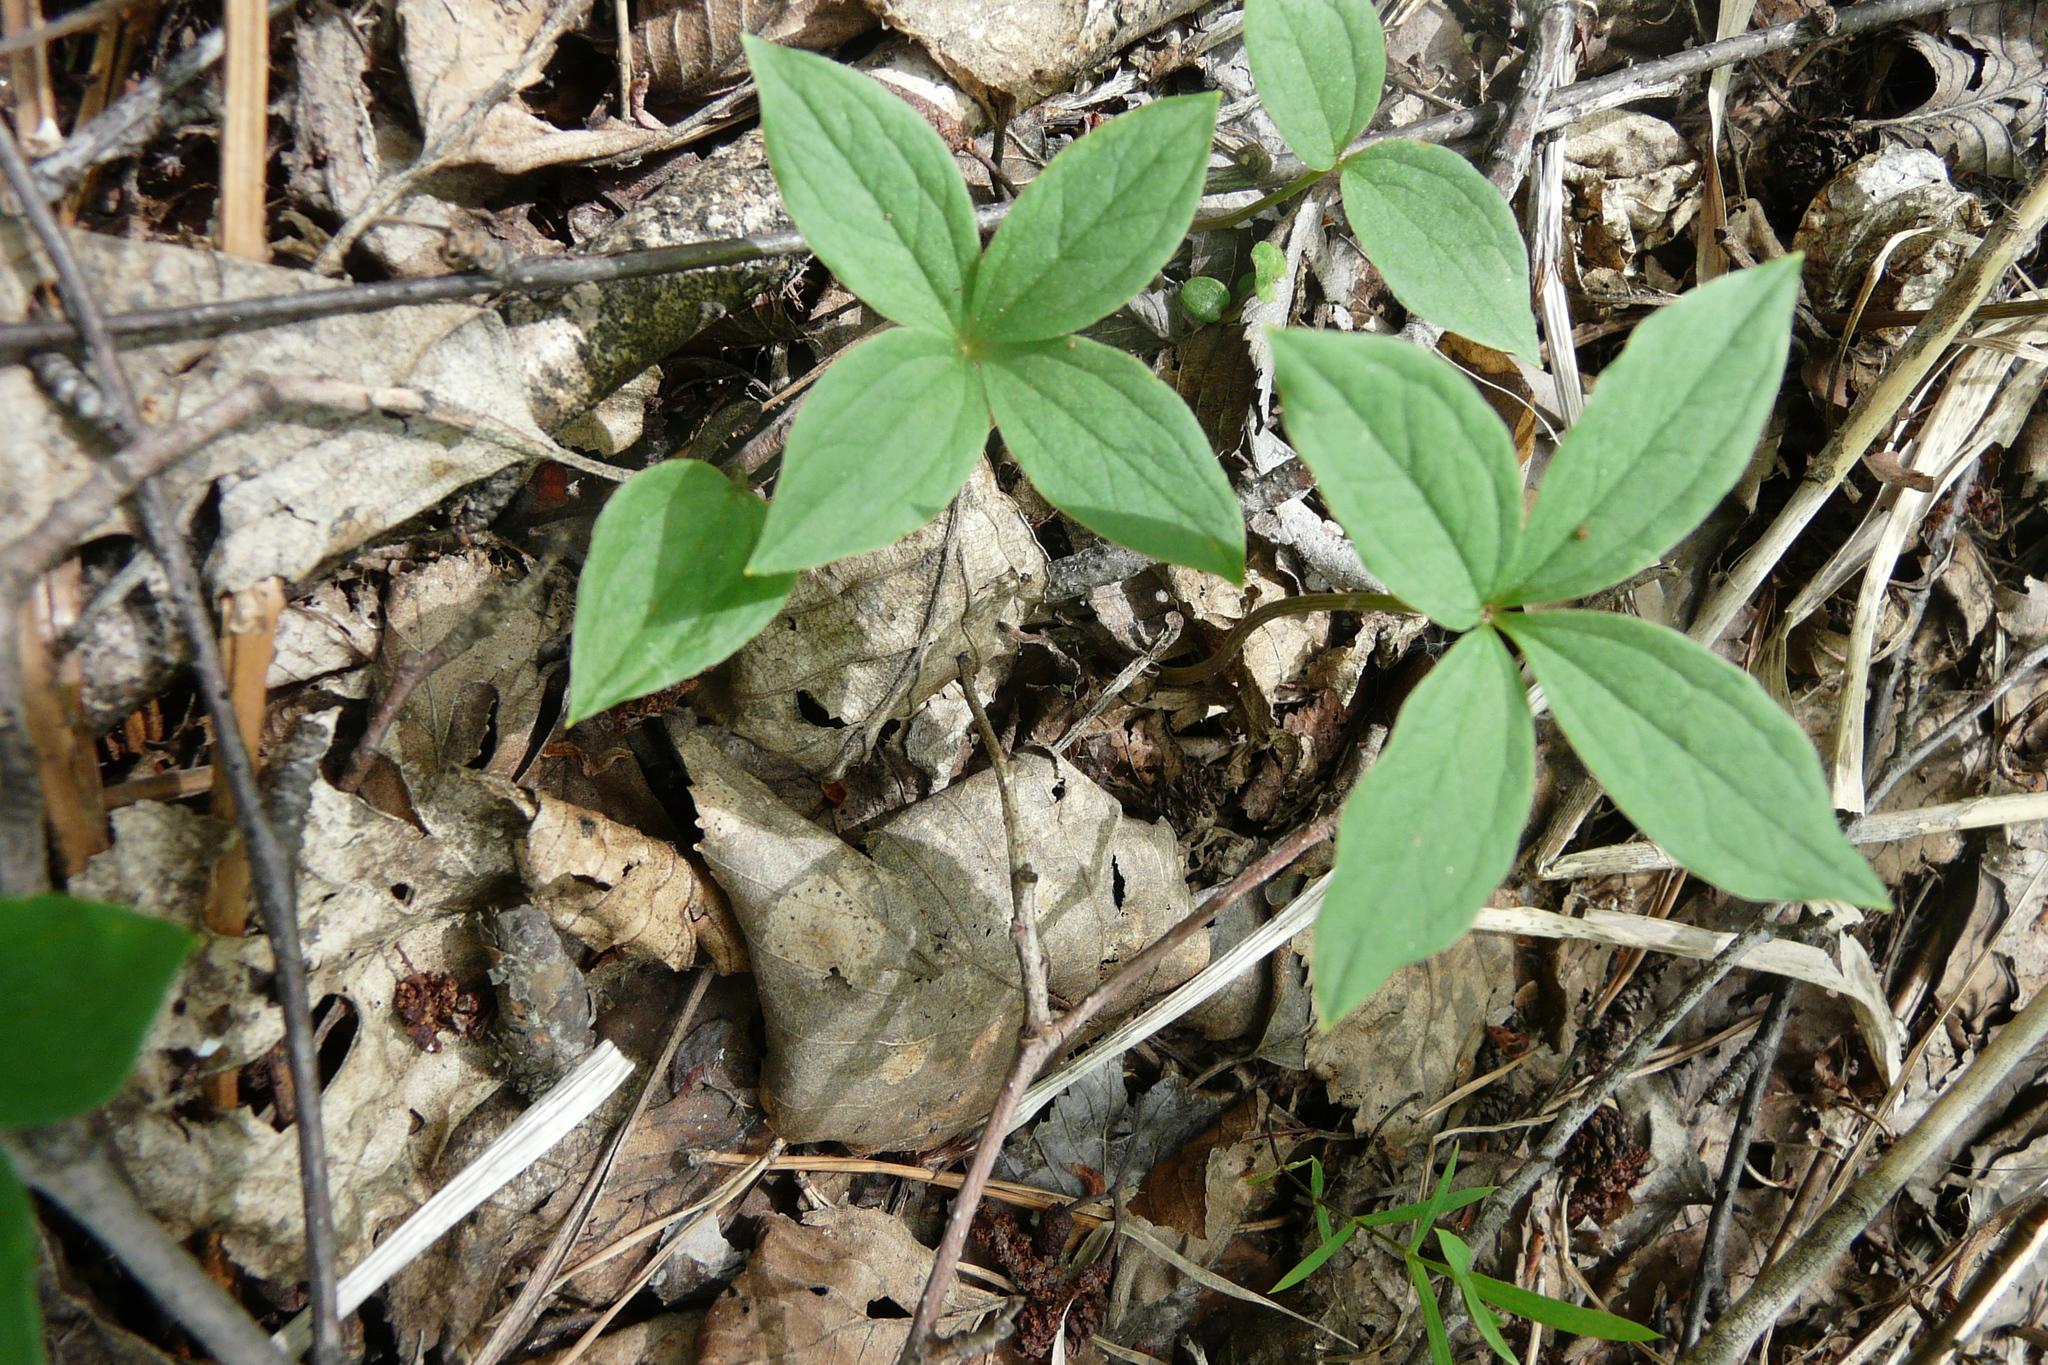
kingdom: Plantae
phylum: Tracheophyta
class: Liliopsida
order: Liliales
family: Melanthiaceae
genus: Paris
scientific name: Paris quadrifolia
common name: Herb-paris
